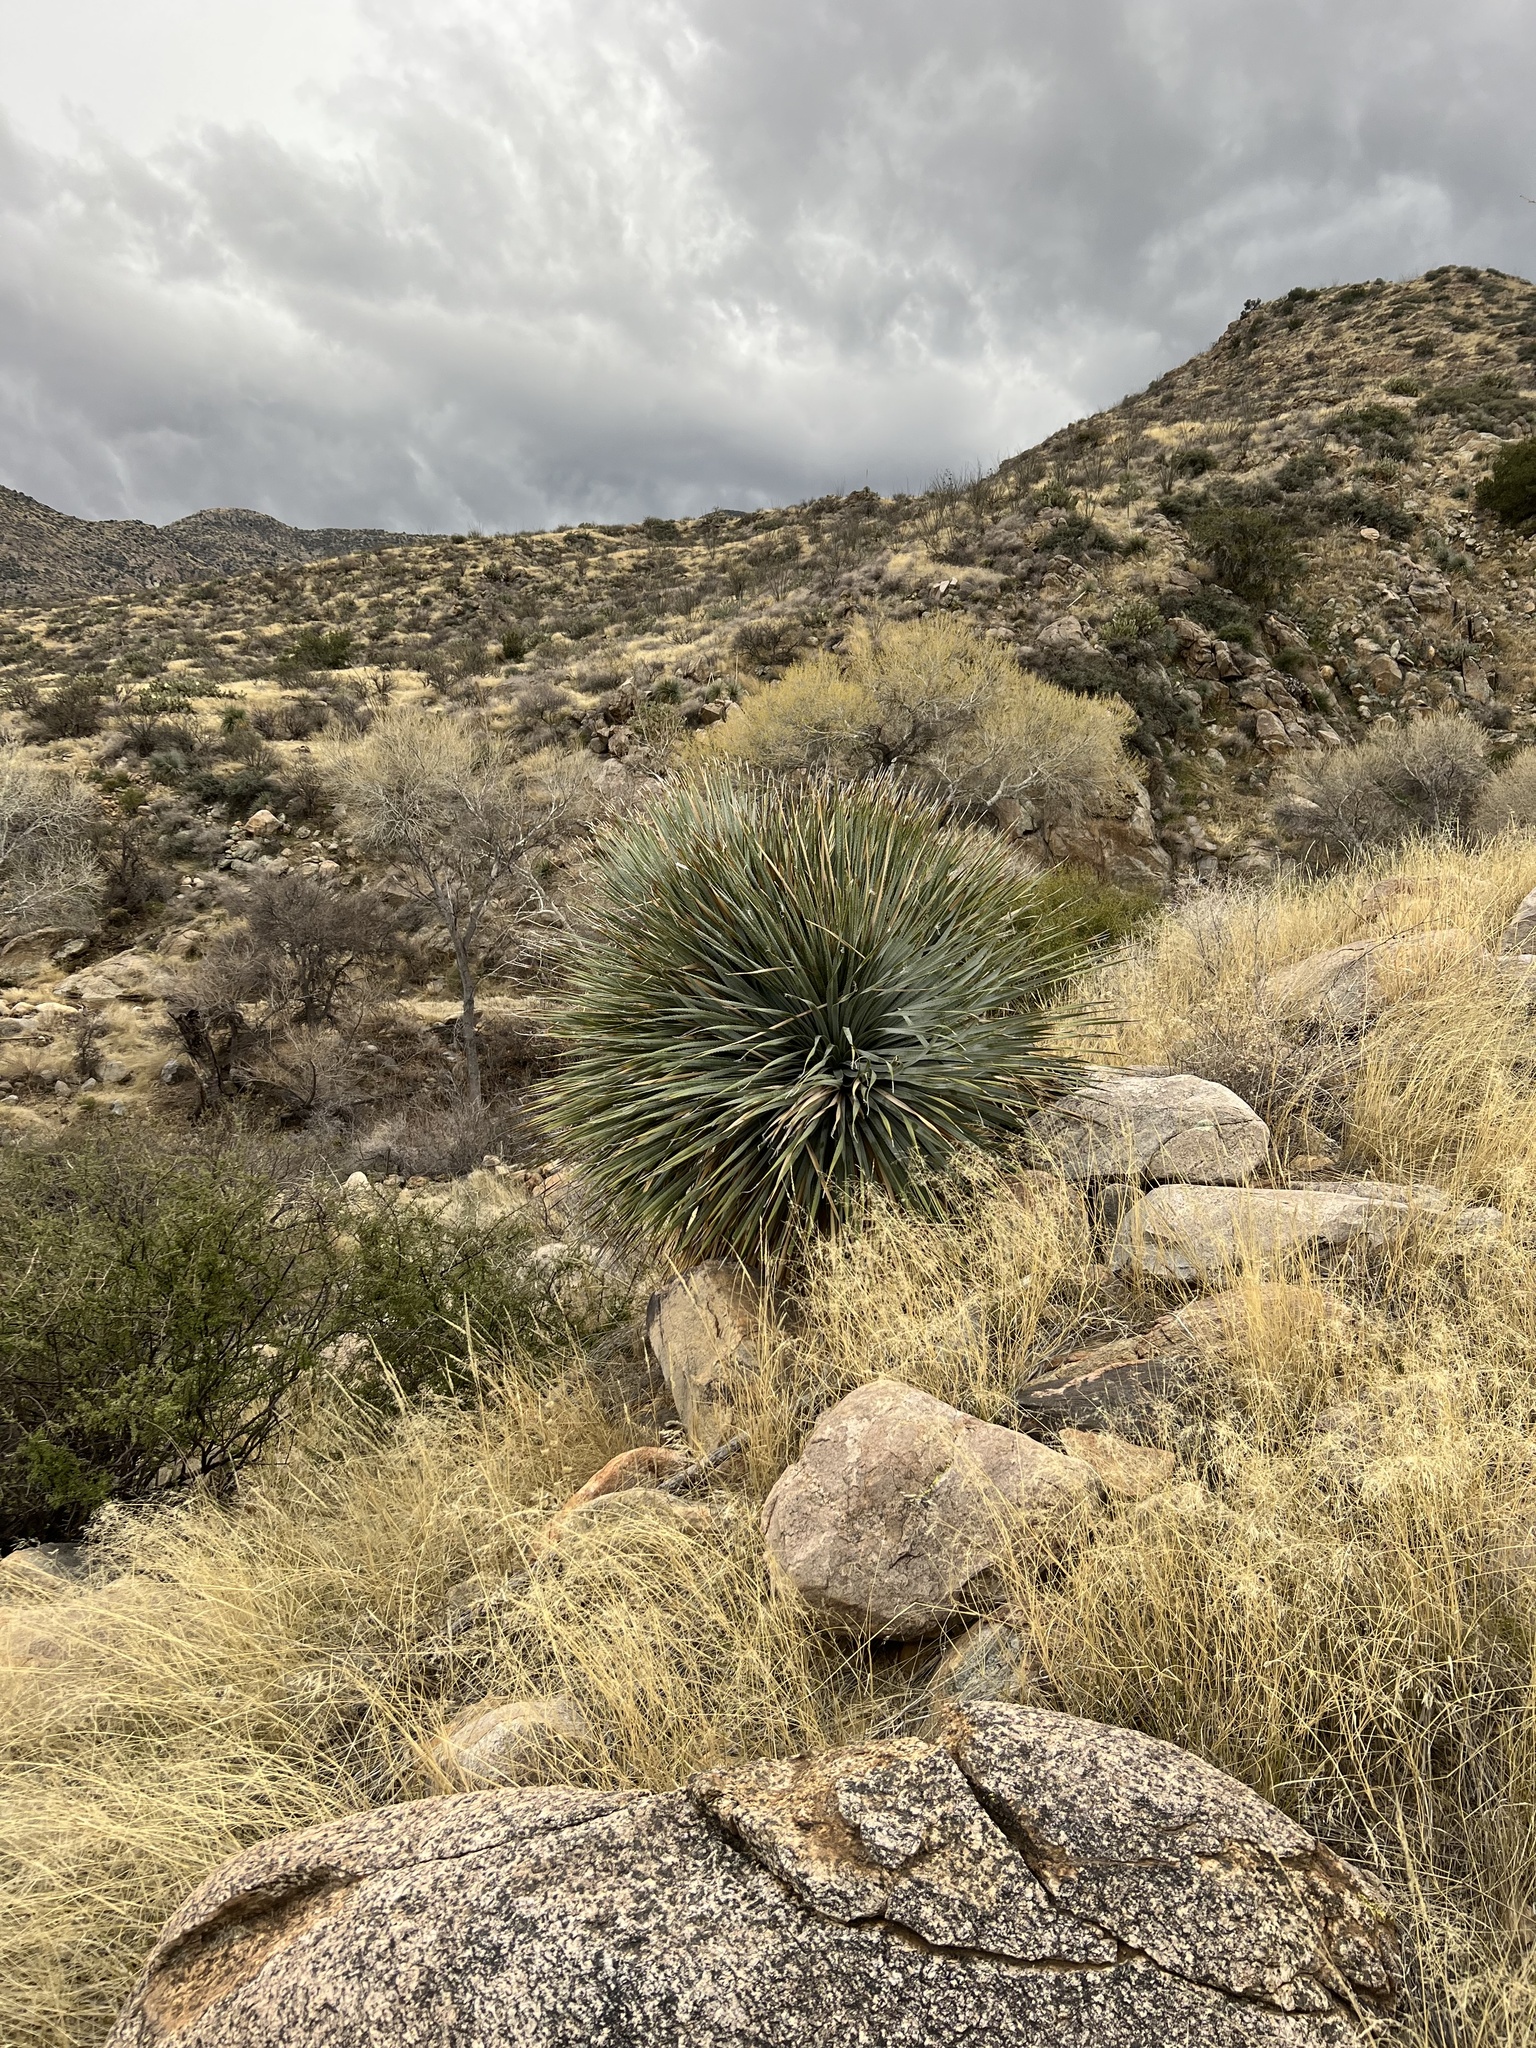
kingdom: Plantae
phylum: Tracheophyta
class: Liliopsida
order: Asparagales
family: Asparagaceae
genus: Dasylirion
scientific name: Dasylirion wheeleri
